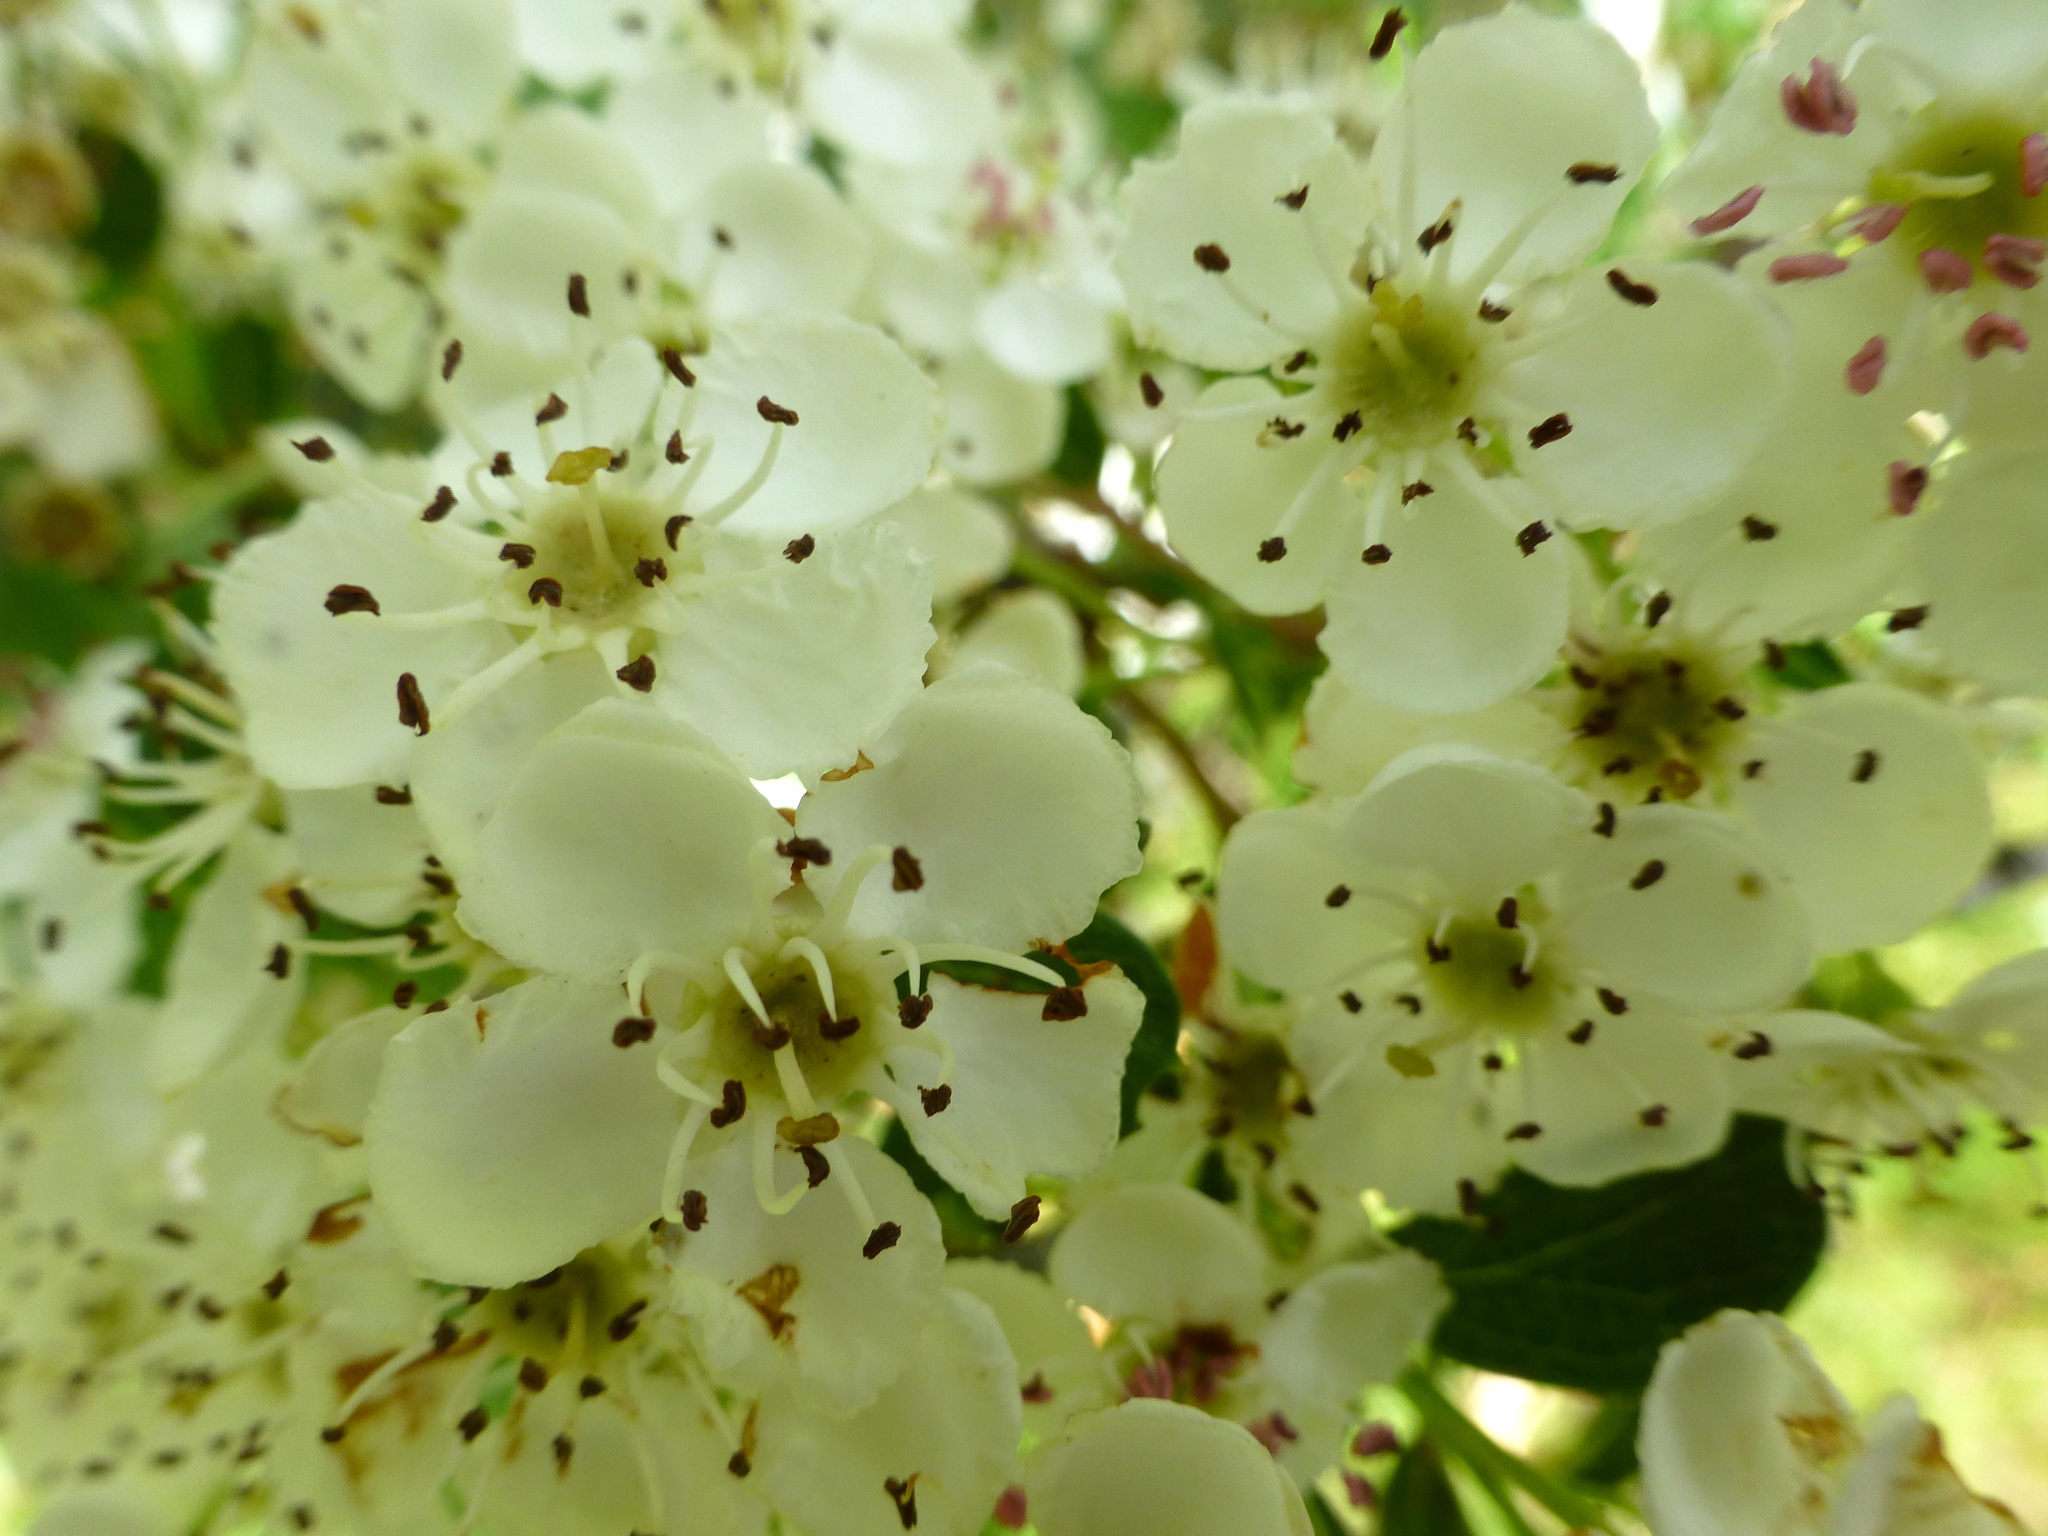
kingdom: Plantae
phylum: Tracheophyta
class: Magnoliopsida
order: Rosales
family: Rosaceae
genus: Crataegus
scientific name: Crataegus monogyna
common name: Hawthorn
